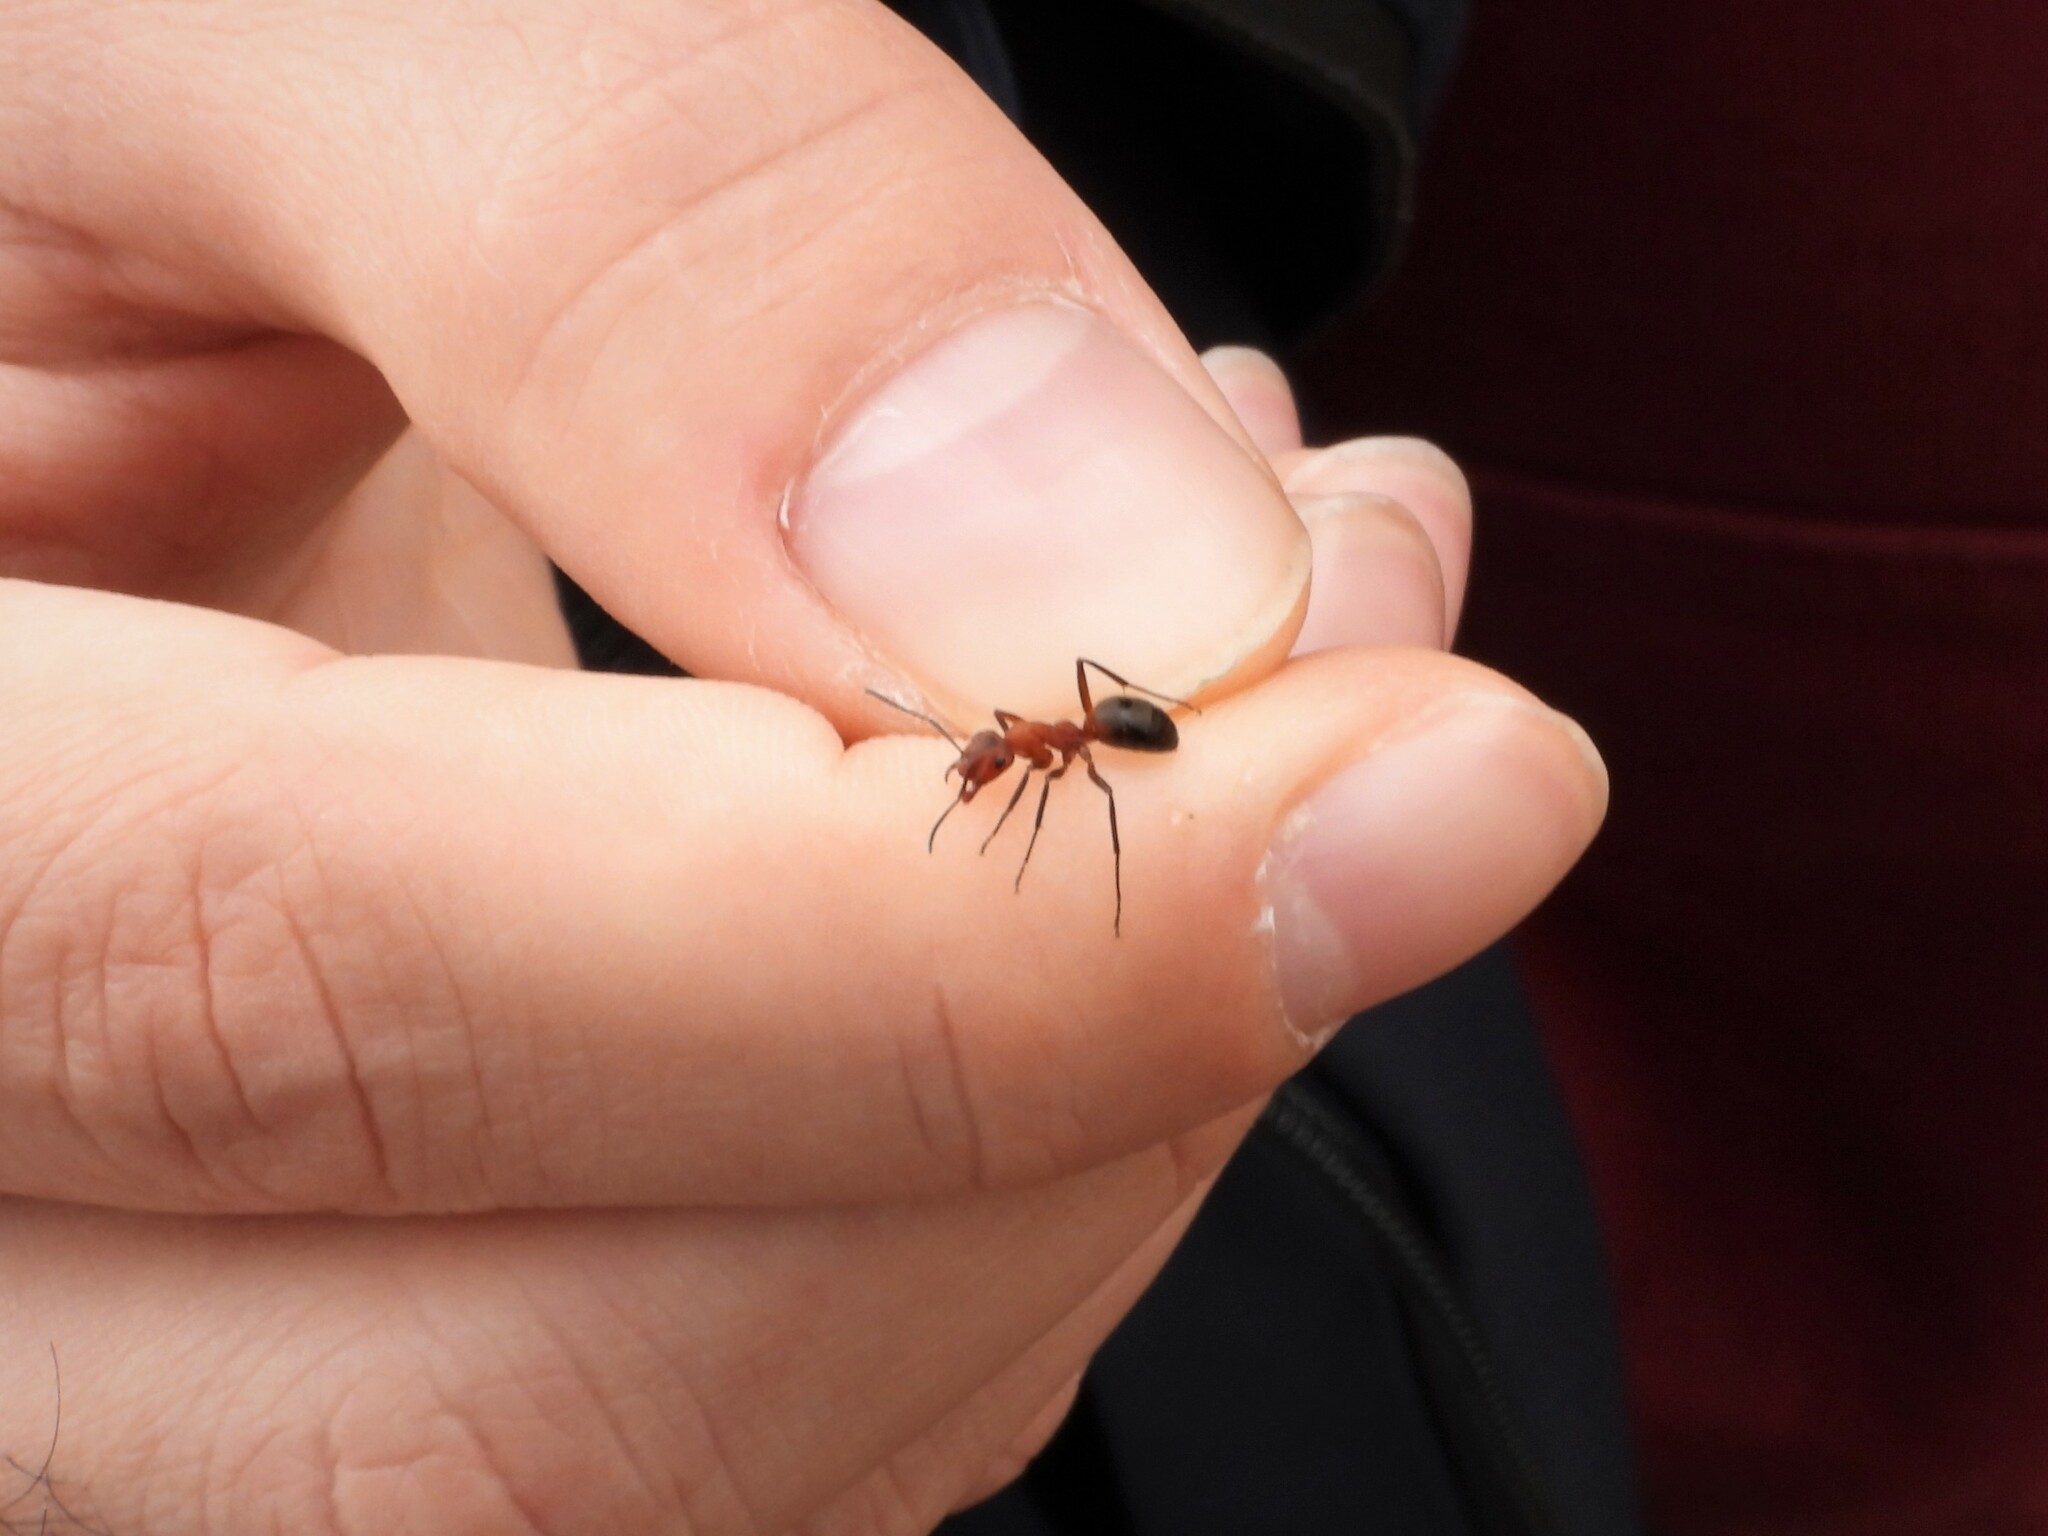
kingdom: Animalia
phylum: Arthropoda
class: Insecta
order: Hymenoptera
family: Formicidae
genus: Formica
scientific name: Formica truncorum
